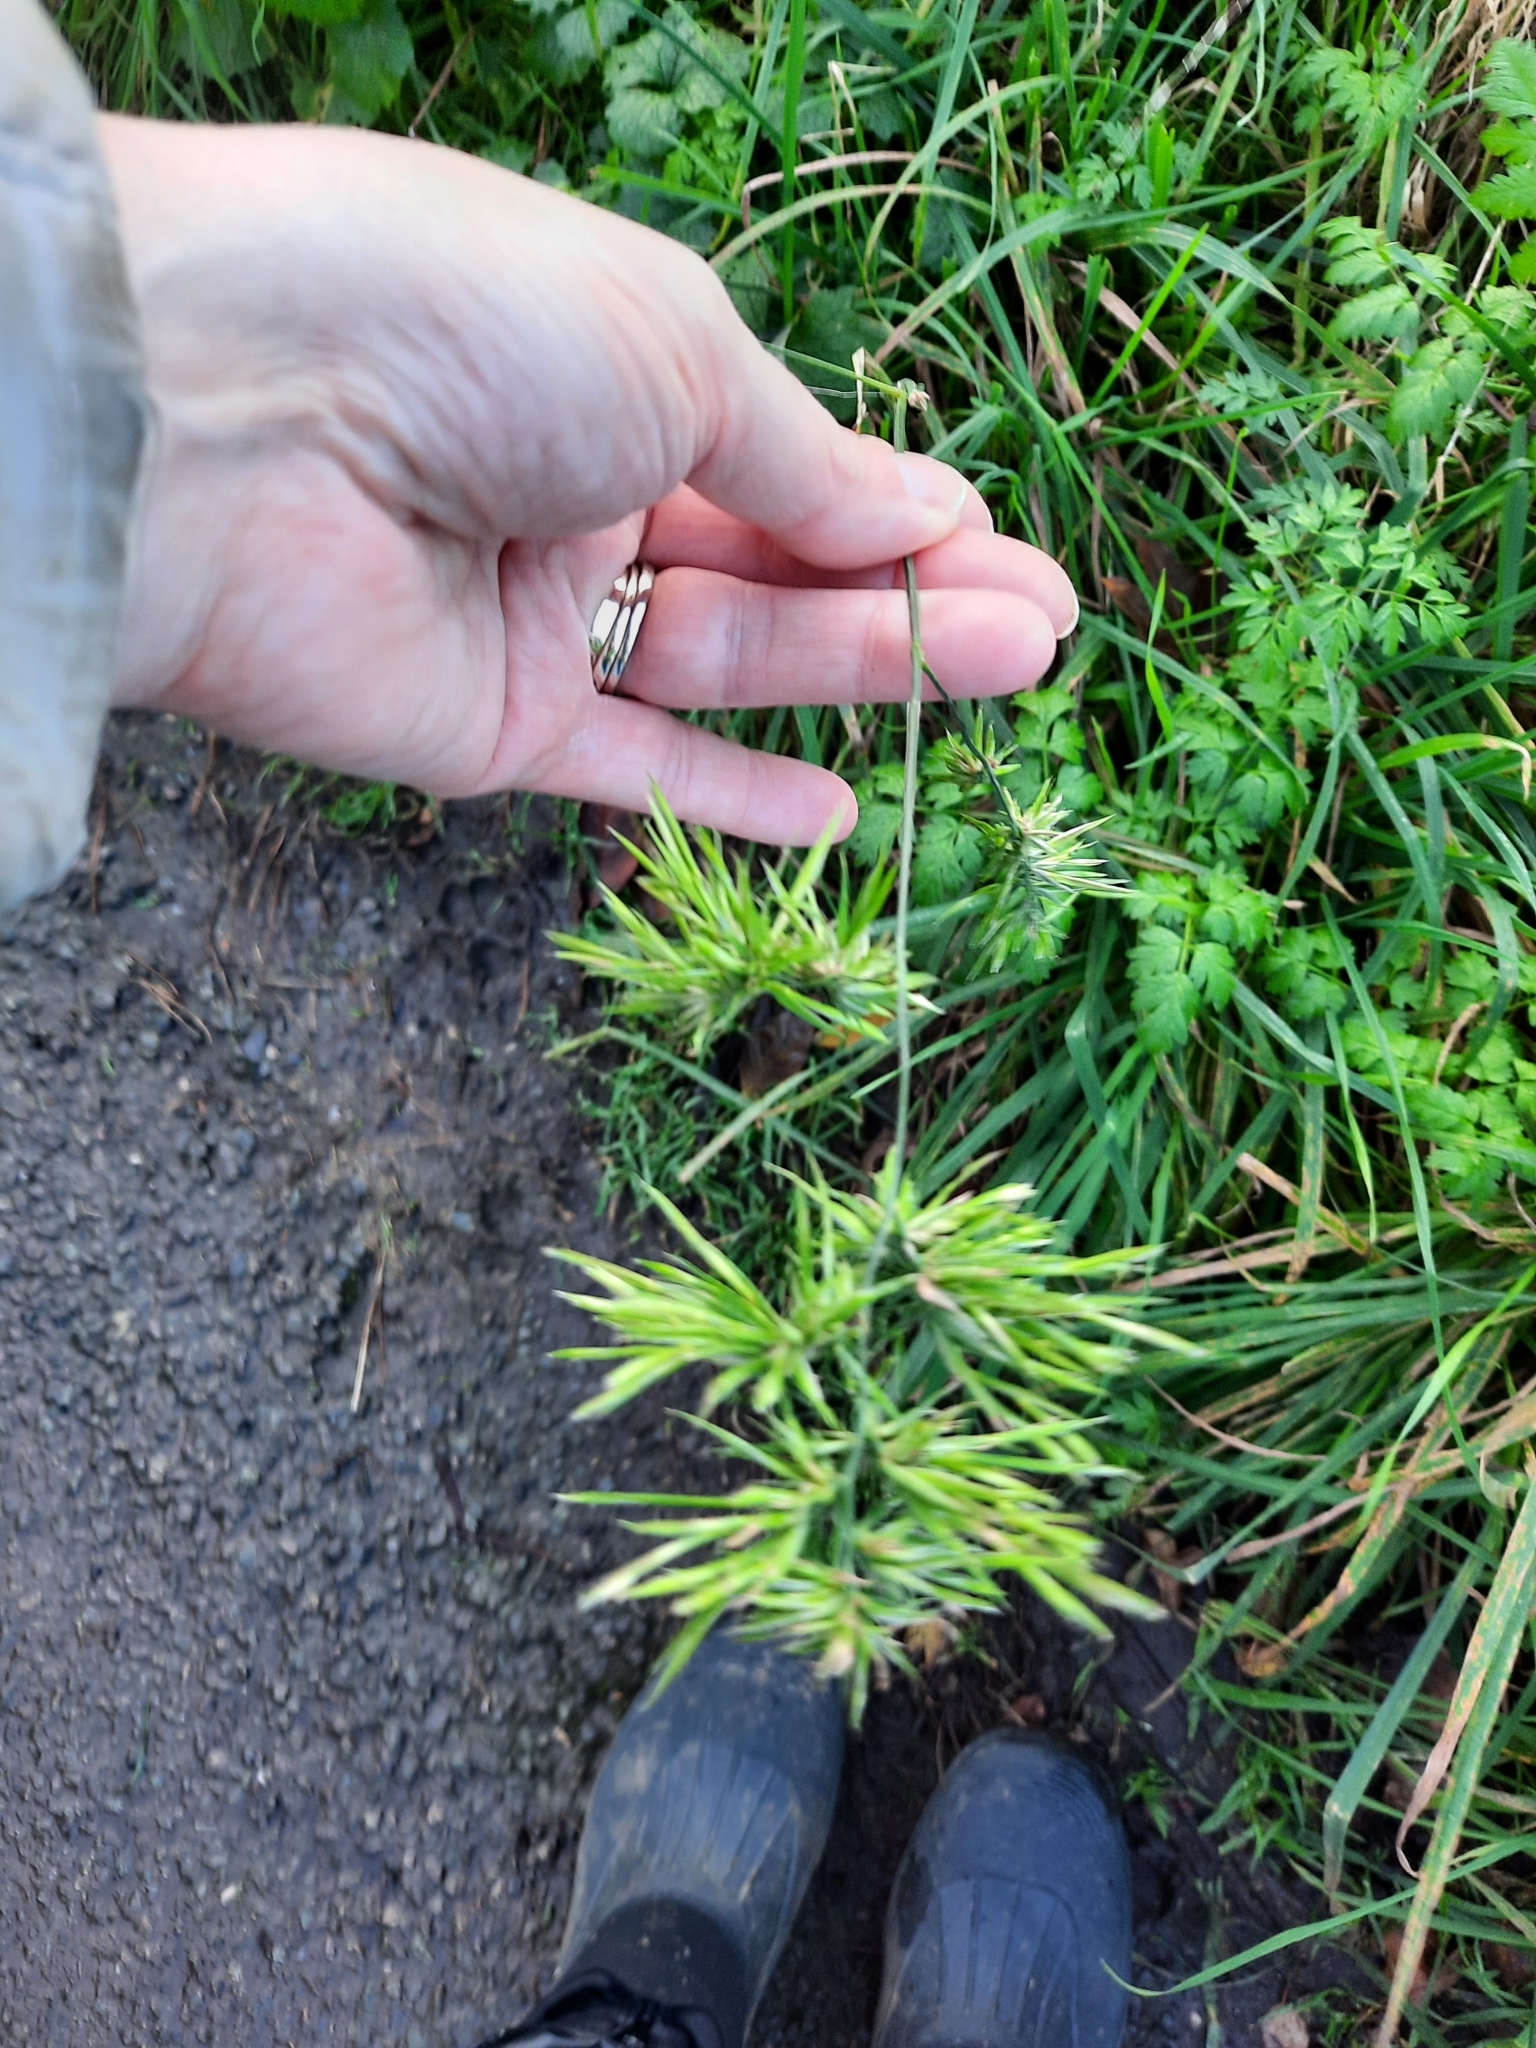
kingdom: Plantae
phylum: Tracheophyta
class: Liliopsida
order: Poales
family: Poaceae
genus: Dactylis
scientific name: Dactylis glomerata
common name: Orchardgrass
